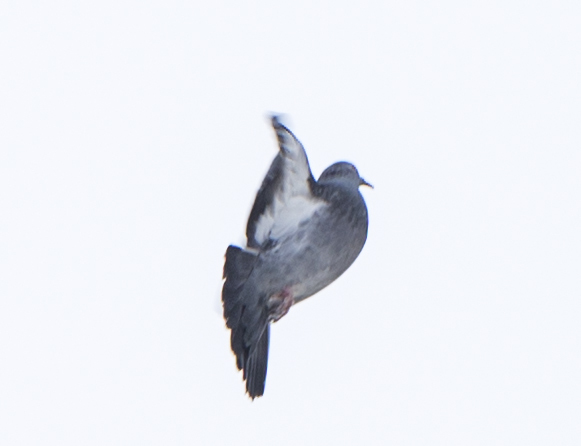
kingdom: Animalia
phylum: Chordata
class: Aves
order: Columbiformes
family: Columbidae
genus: Columba
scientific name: Columba livia
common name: Rock pigeon
